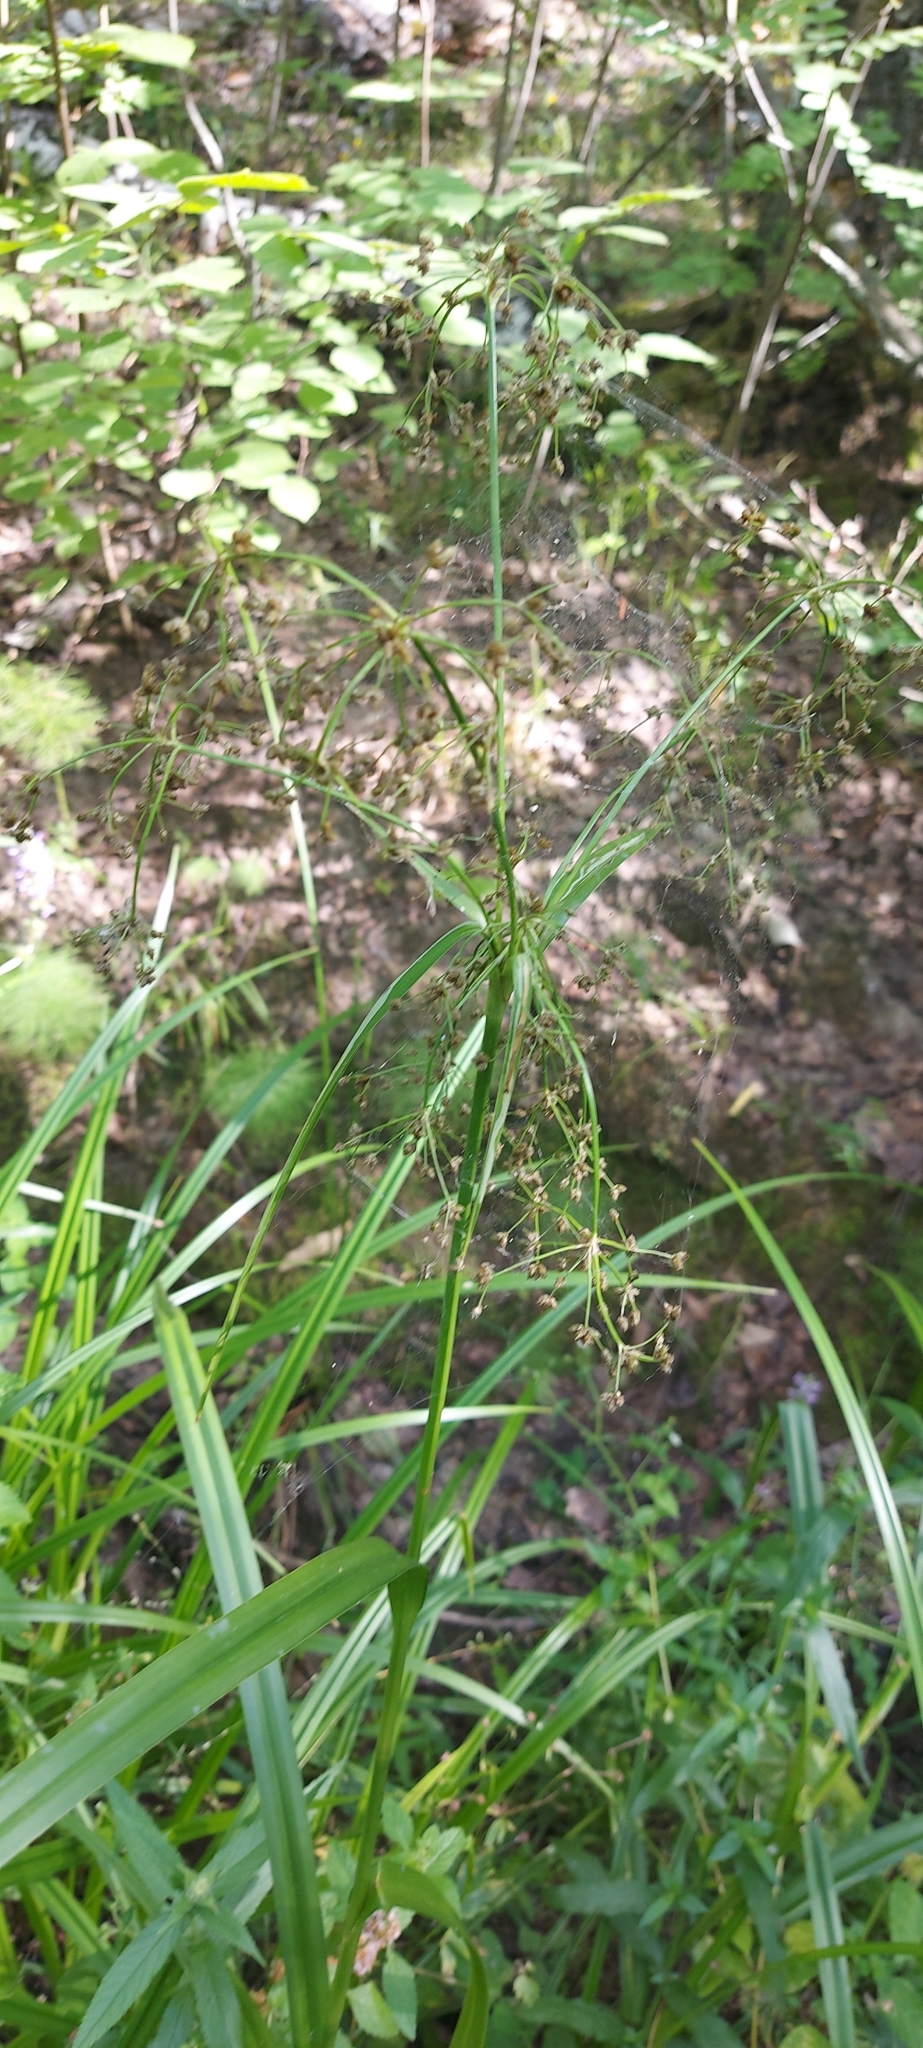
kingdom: Plantae
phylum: Tracheophyta
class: Liliopsida
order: Poales
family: Cyperaceae
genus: Scirpus
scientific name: Scirpus sylvaticus
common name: Wood club-rush
